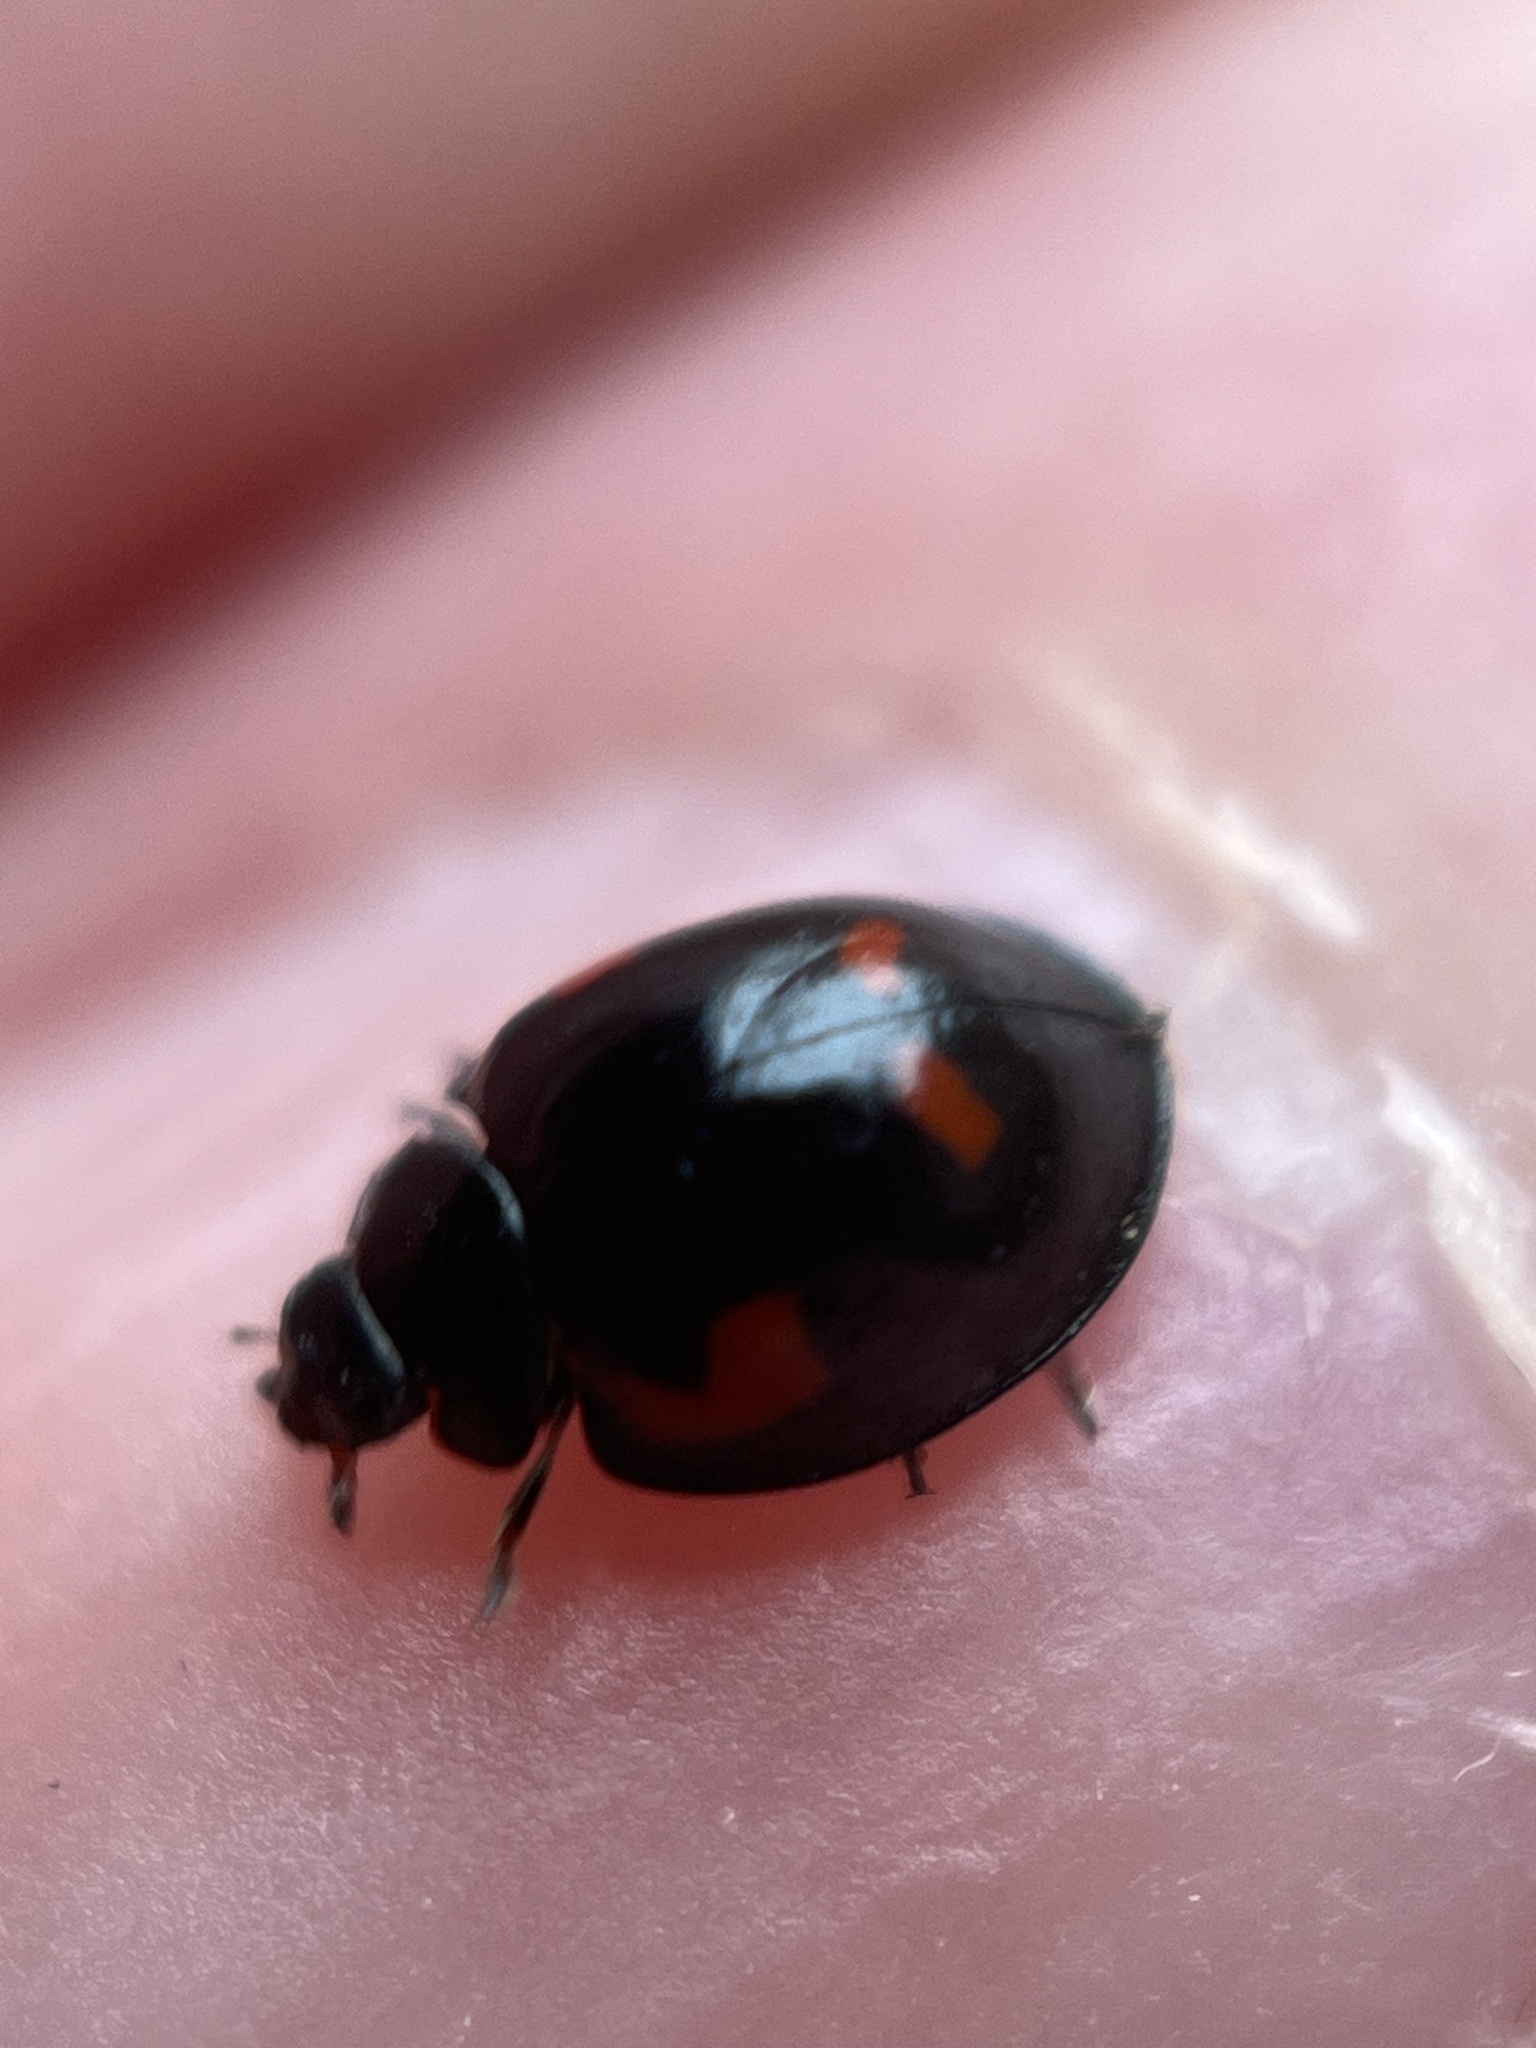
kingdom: Animalia
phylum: Arthropoda
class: Insecta
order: Coleoptera
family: Coccinellidae
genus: Brumus
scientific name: Brumus quadripustulatus
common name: Ladybird beetle
